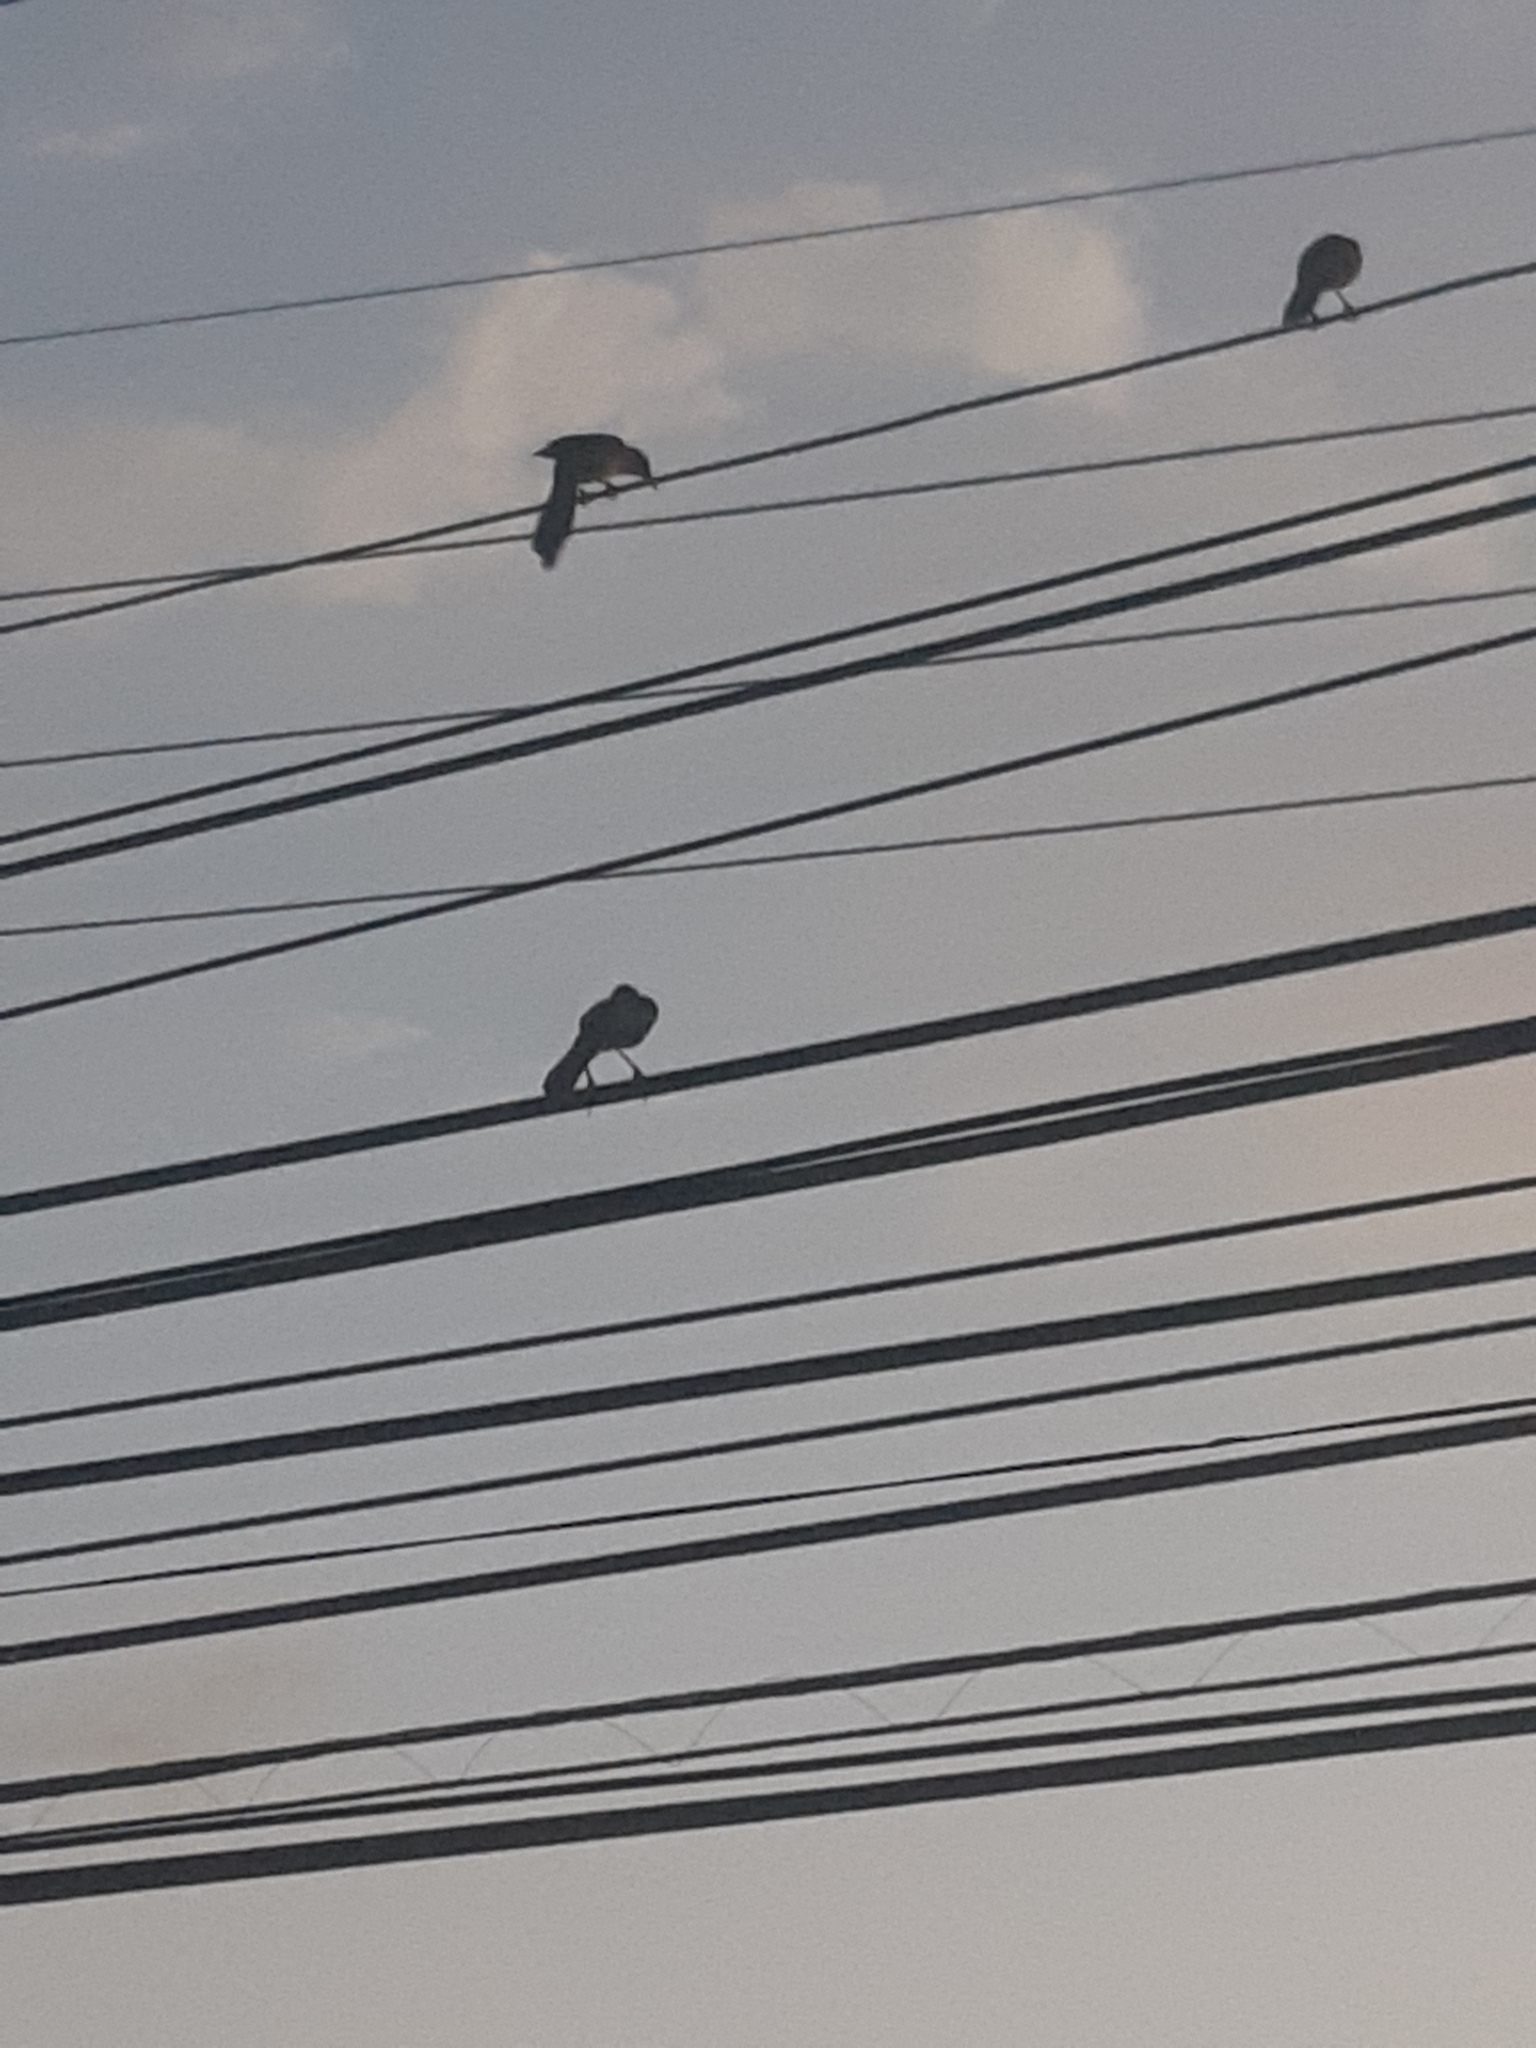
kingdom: Animalia
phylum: Chordata
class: Aves
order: Passeriformes
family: Icteridae
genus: Quiscalus
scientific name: Quiscalus mexicanus
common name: Great-tailed grackle
